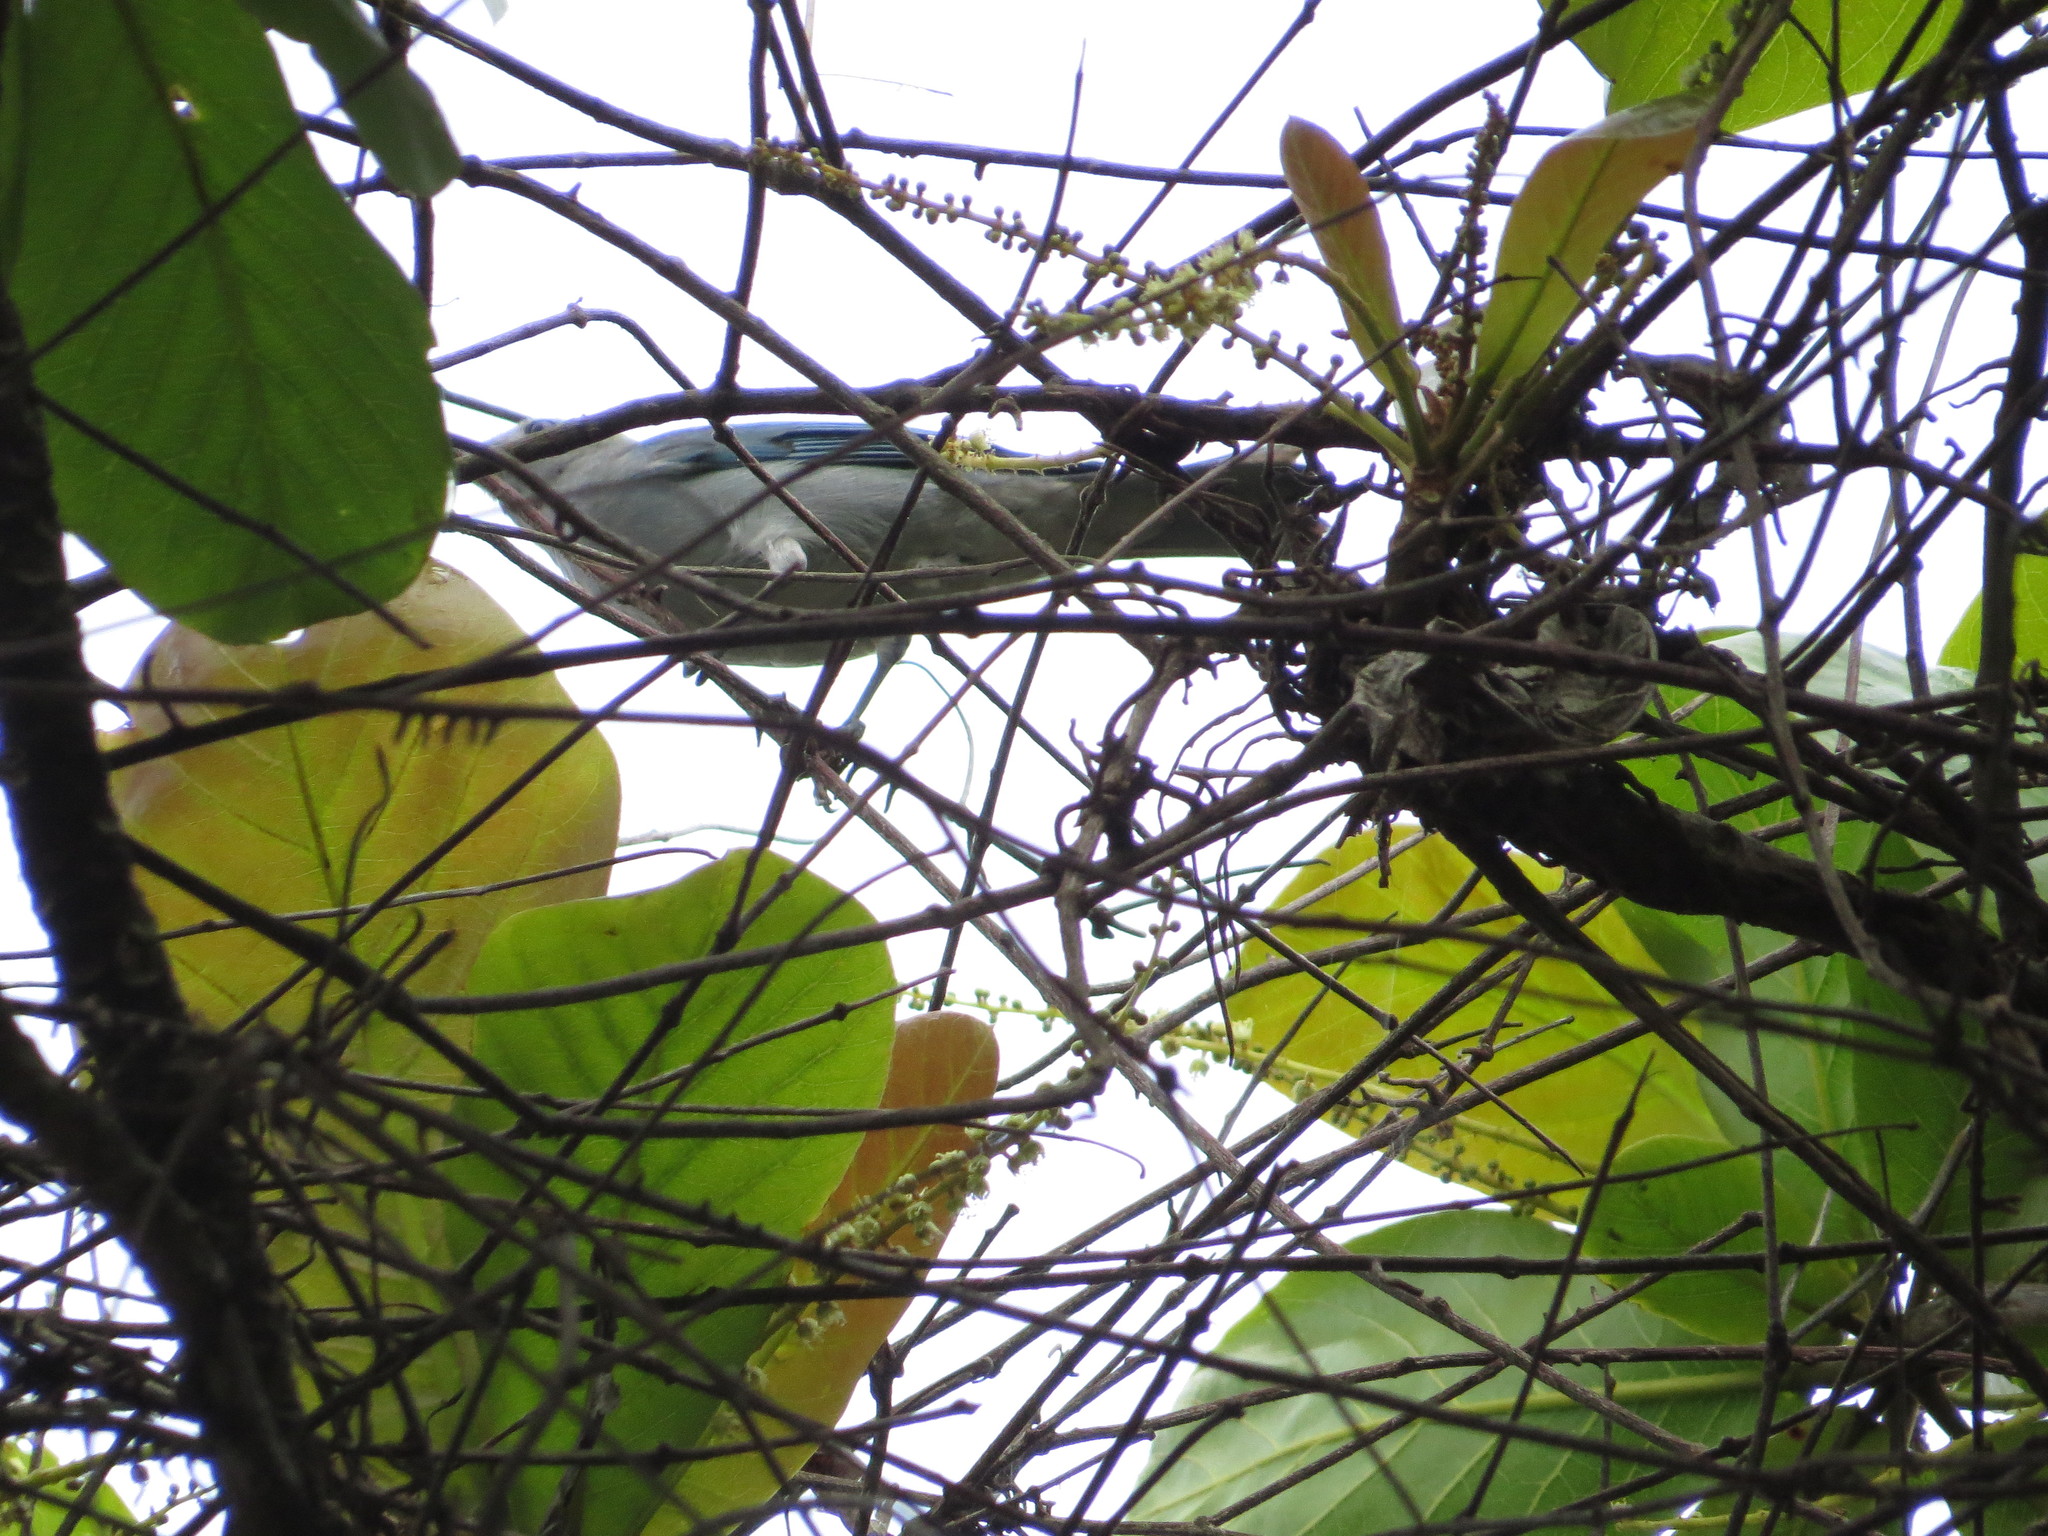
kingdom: Animalia
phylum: Chordata
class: Aves
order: Passeriformes
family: Thraupidae
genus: Thraupis
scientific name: Thraupis sayaca
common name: Sayaca tanager
